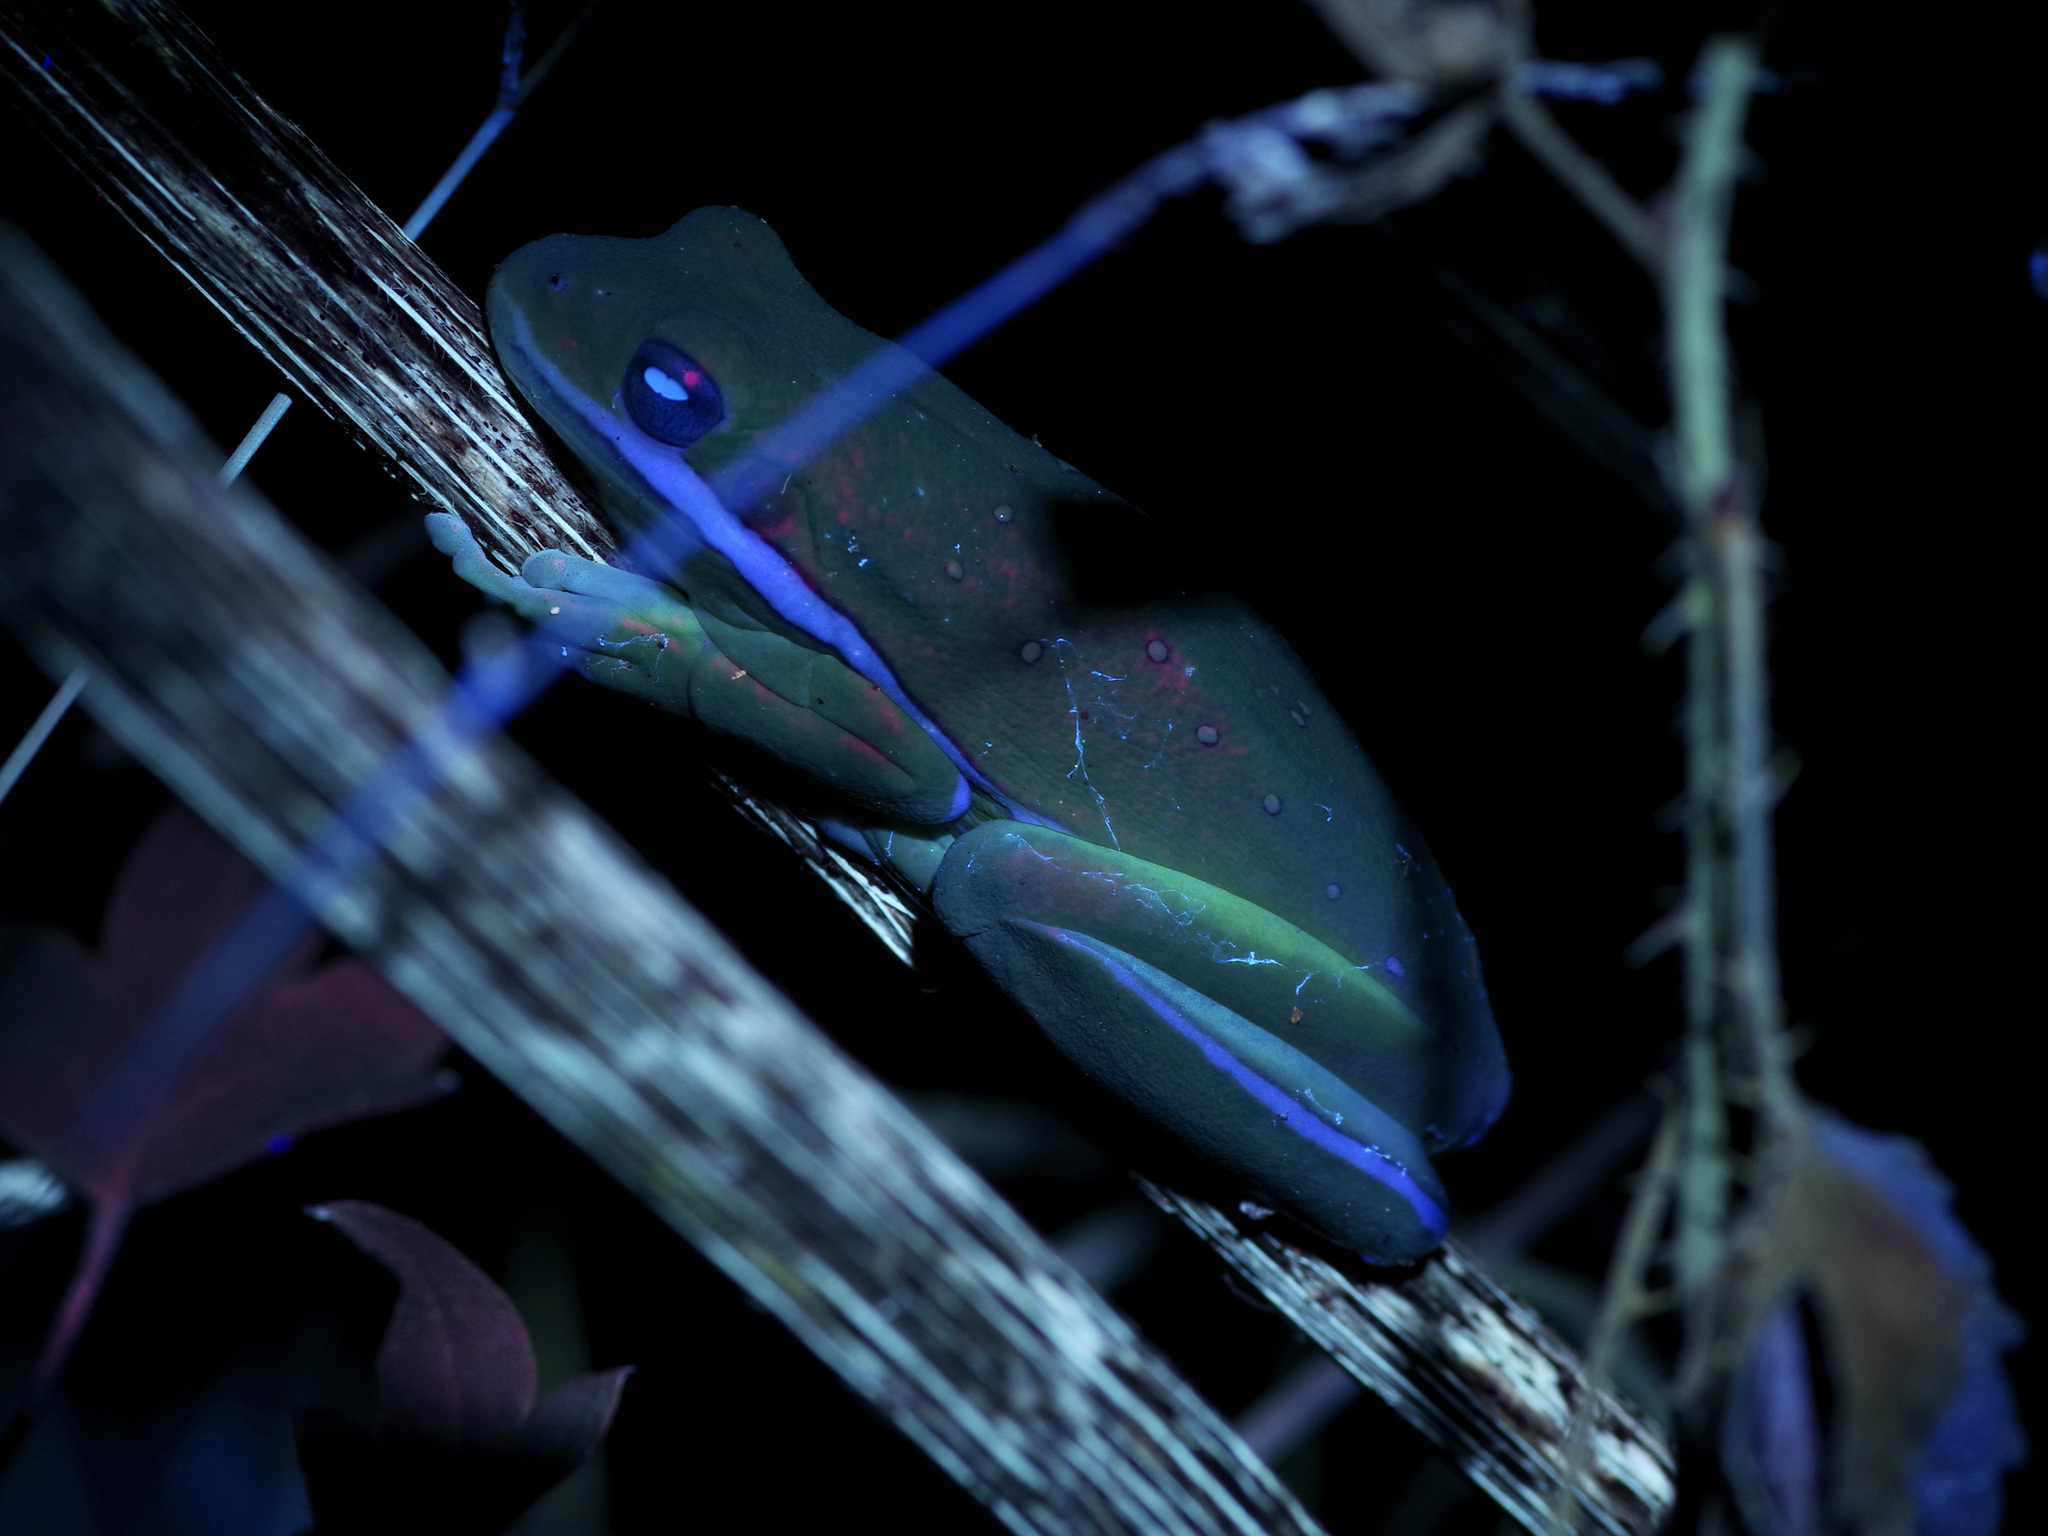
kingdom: Animalia
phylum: Chordata
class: Amphibia
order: Anura
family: Hylidae
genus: Dryophytes
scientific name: Dryophytes cinereus
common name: Green treefrog
